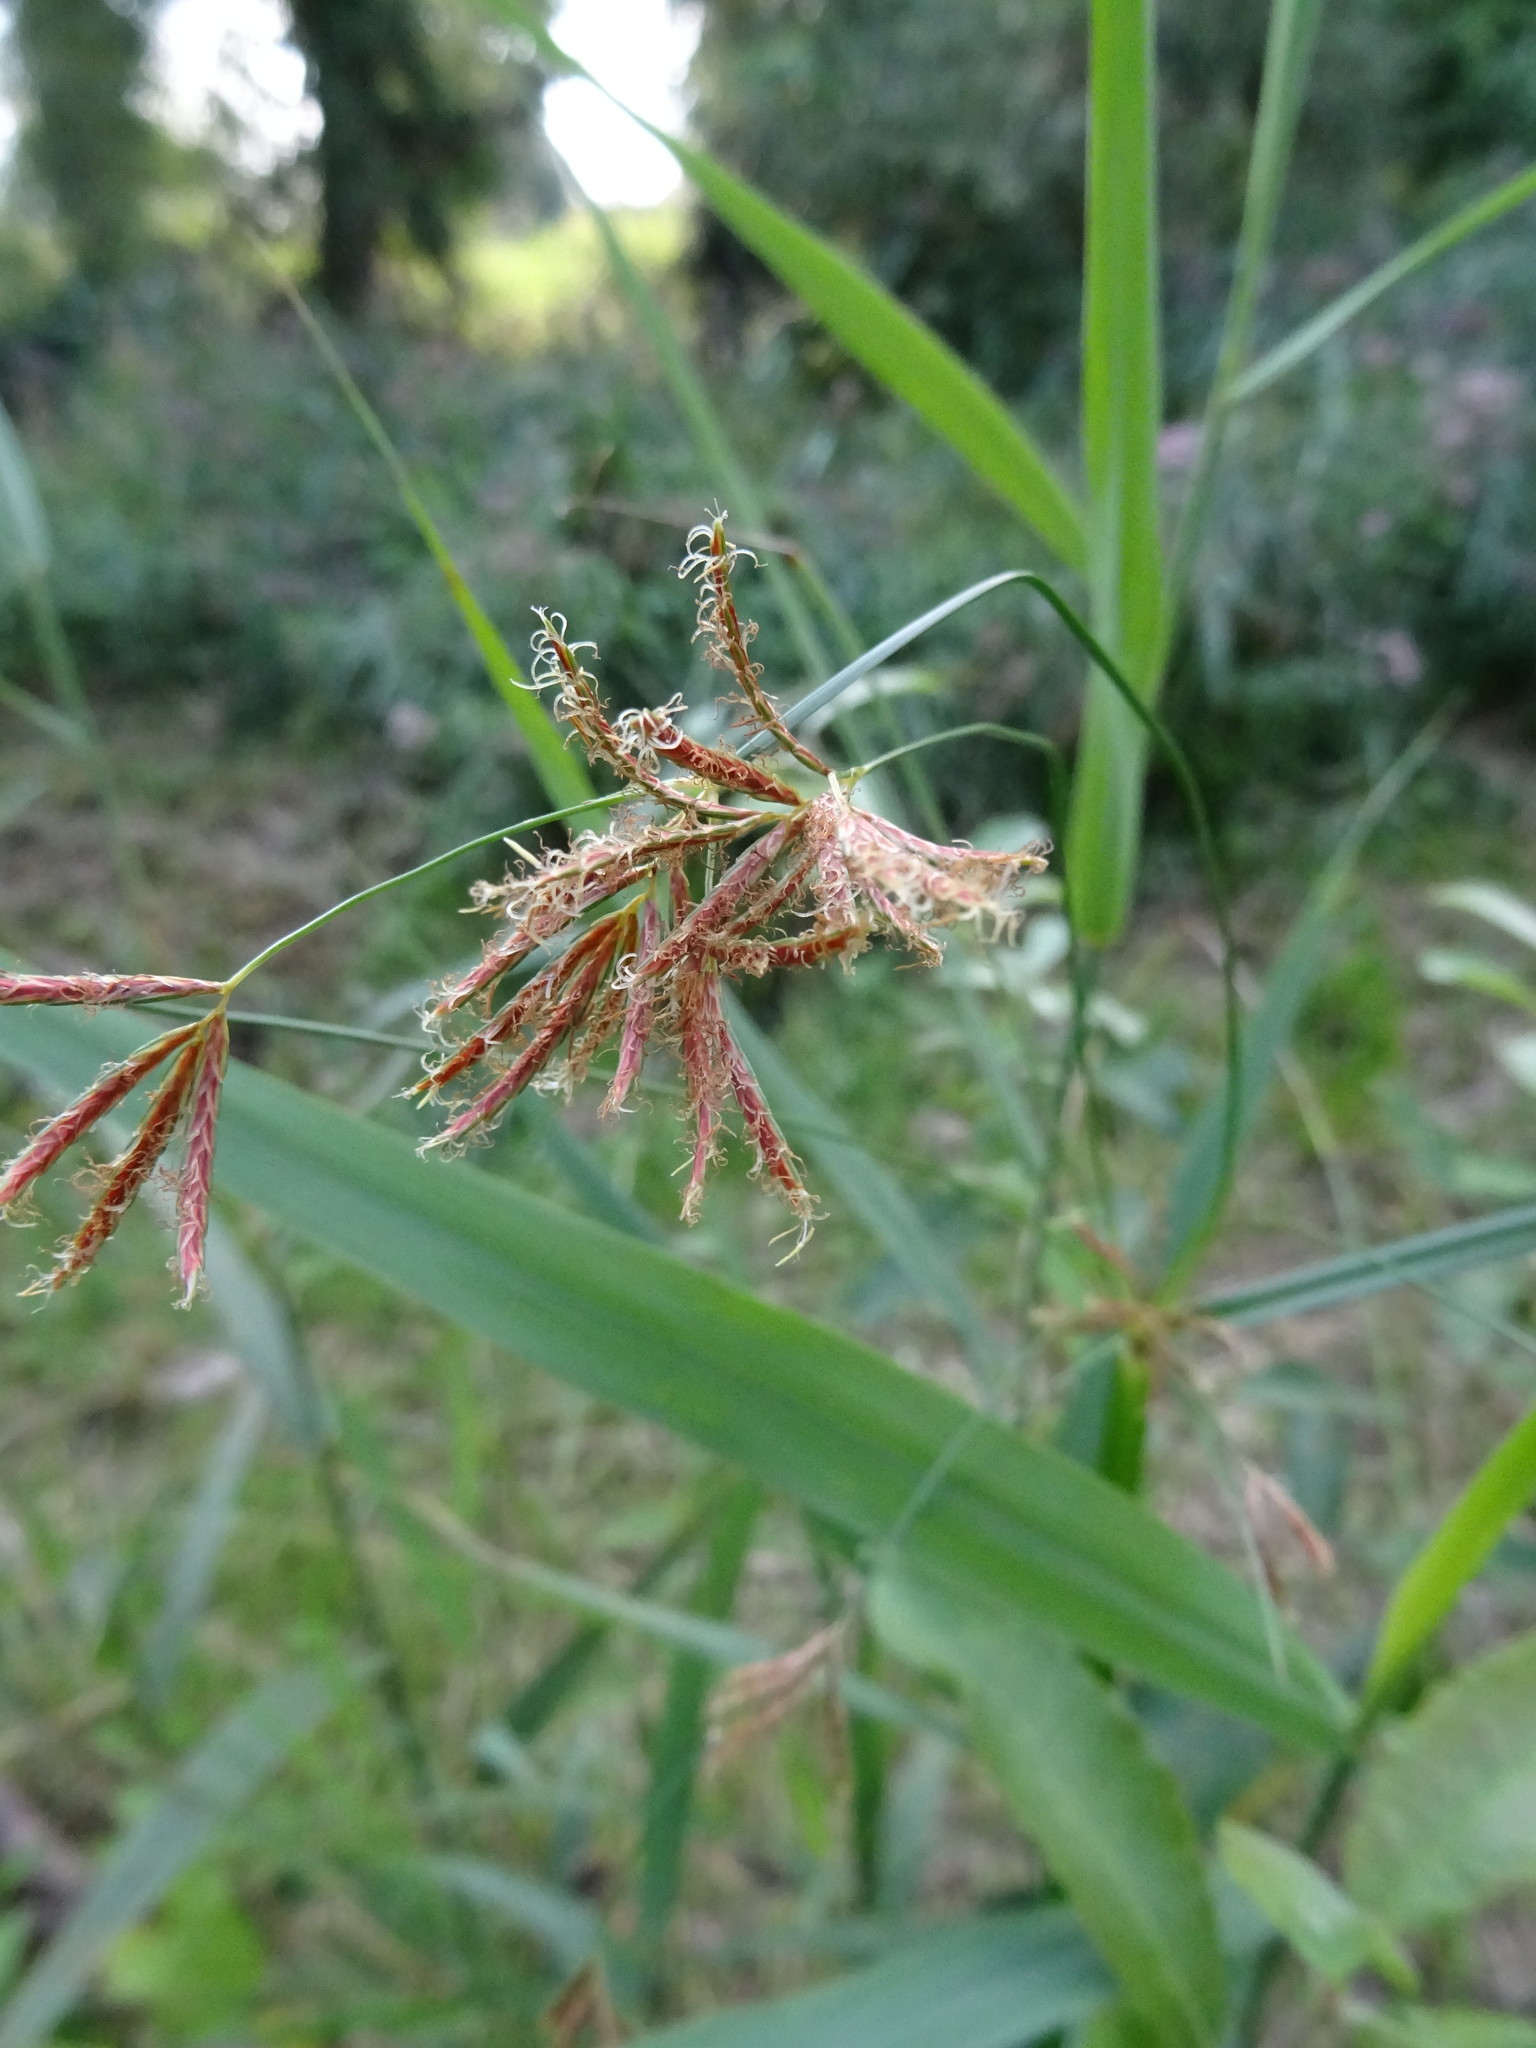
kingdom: Plantae
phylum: Tracheophyta
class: Liliopsida
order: Poales
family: Cyperaceae
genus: Cyperus
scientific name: Cyperus longus
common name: Galingale
